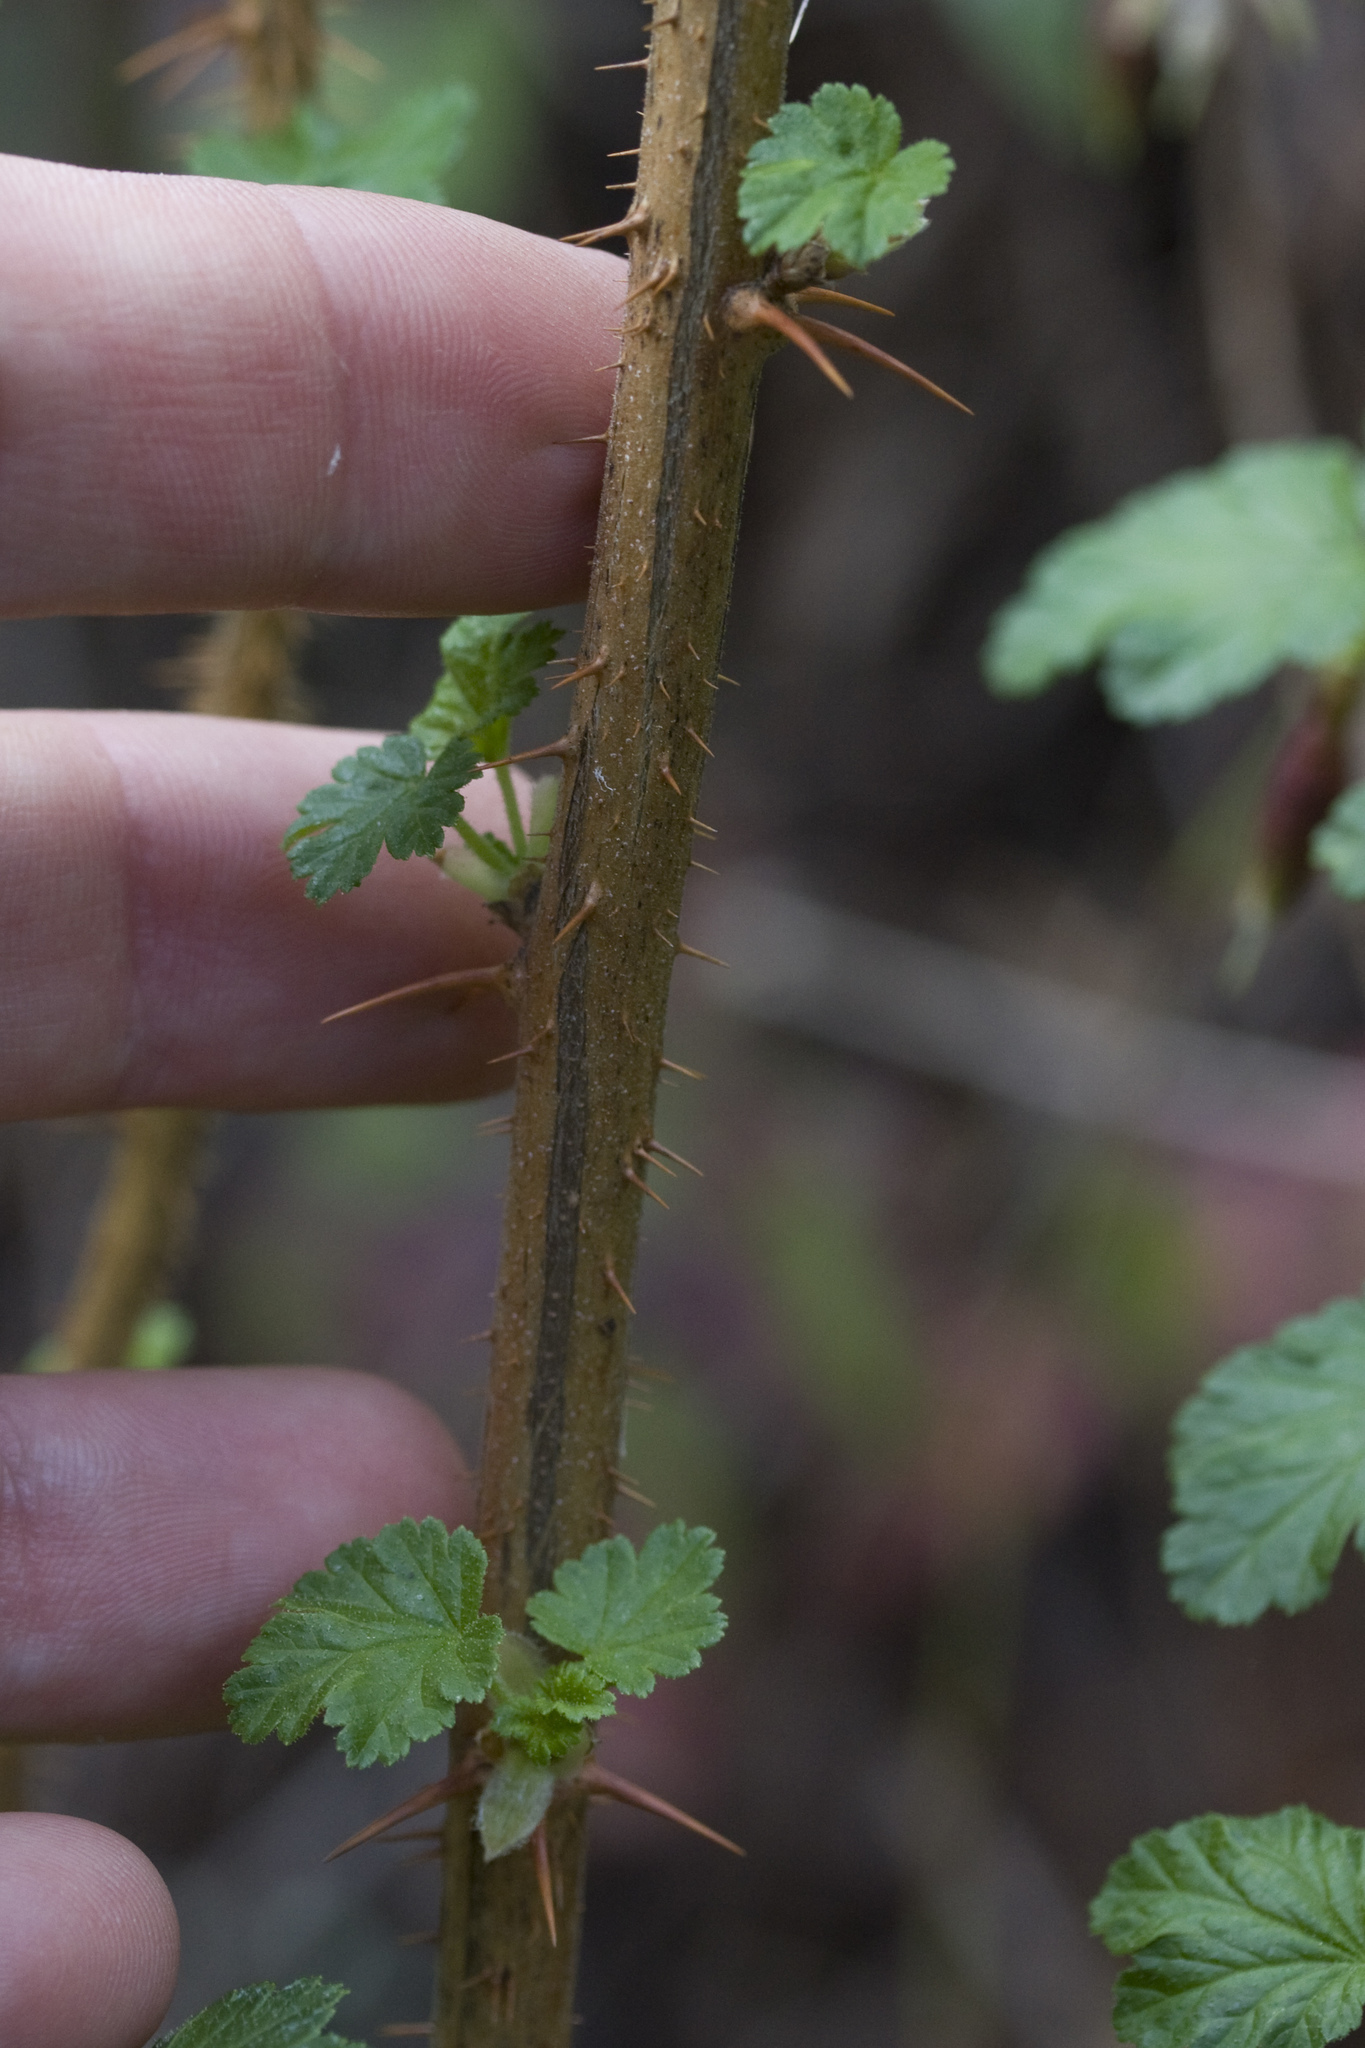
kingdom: Plantae
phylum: Tracheophyta
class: Magnoliopsida
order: Saxifragales
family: Grossulariaceae
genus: Ribes
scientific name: Ribes menziesii
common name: Canyon gooseberry
